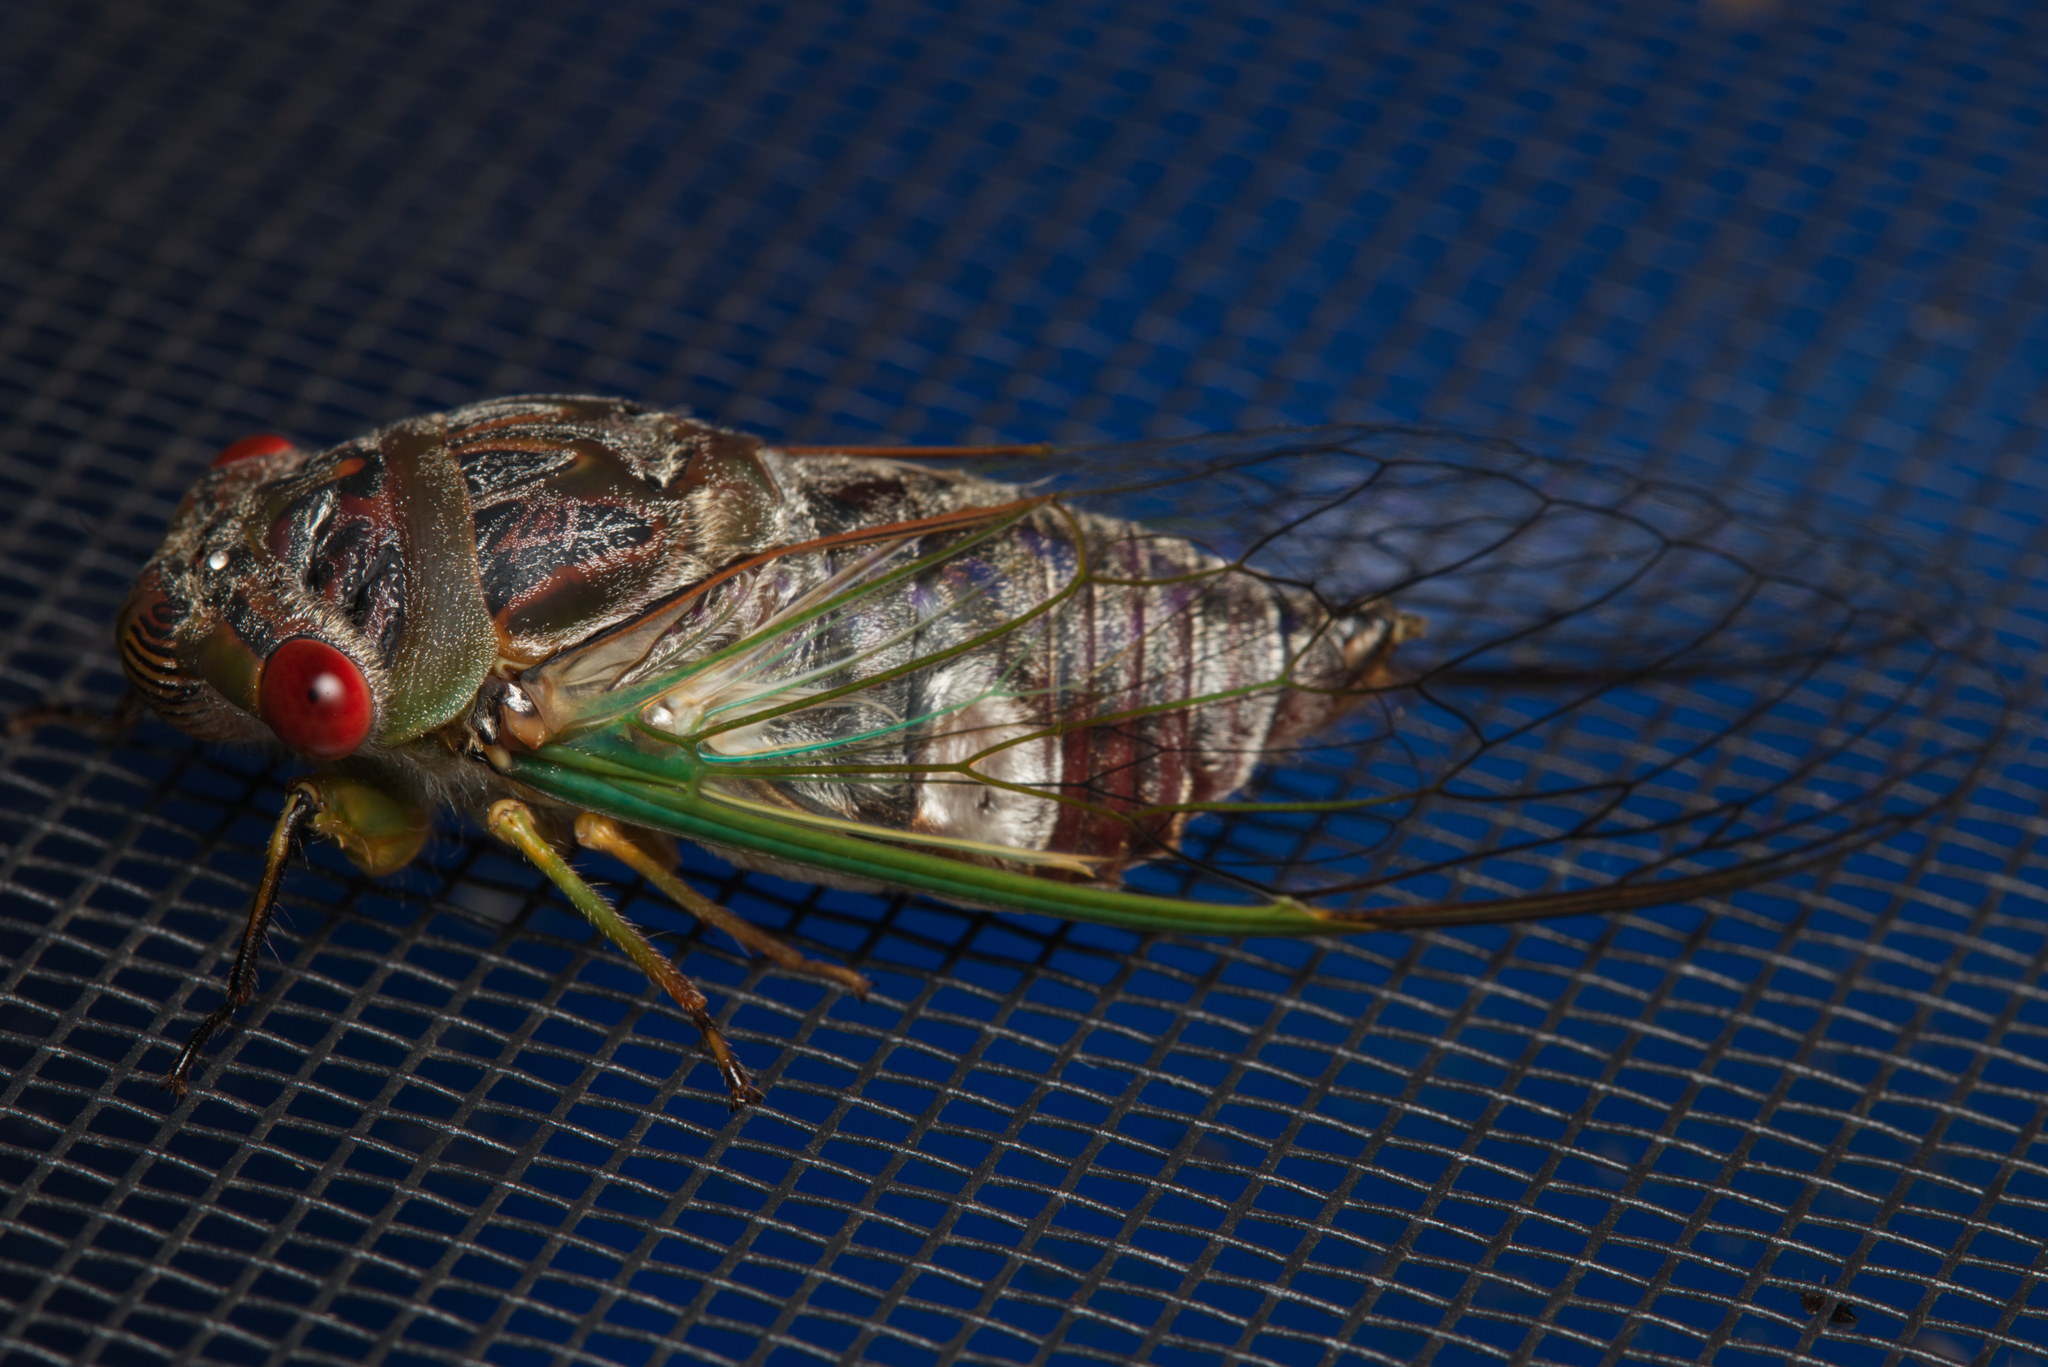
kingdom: Animalia
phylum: Arthropoda
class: Insecta
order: Hemiptera
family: Cicadidae
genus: Psaltoda
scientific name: Psaltoda claripennis
